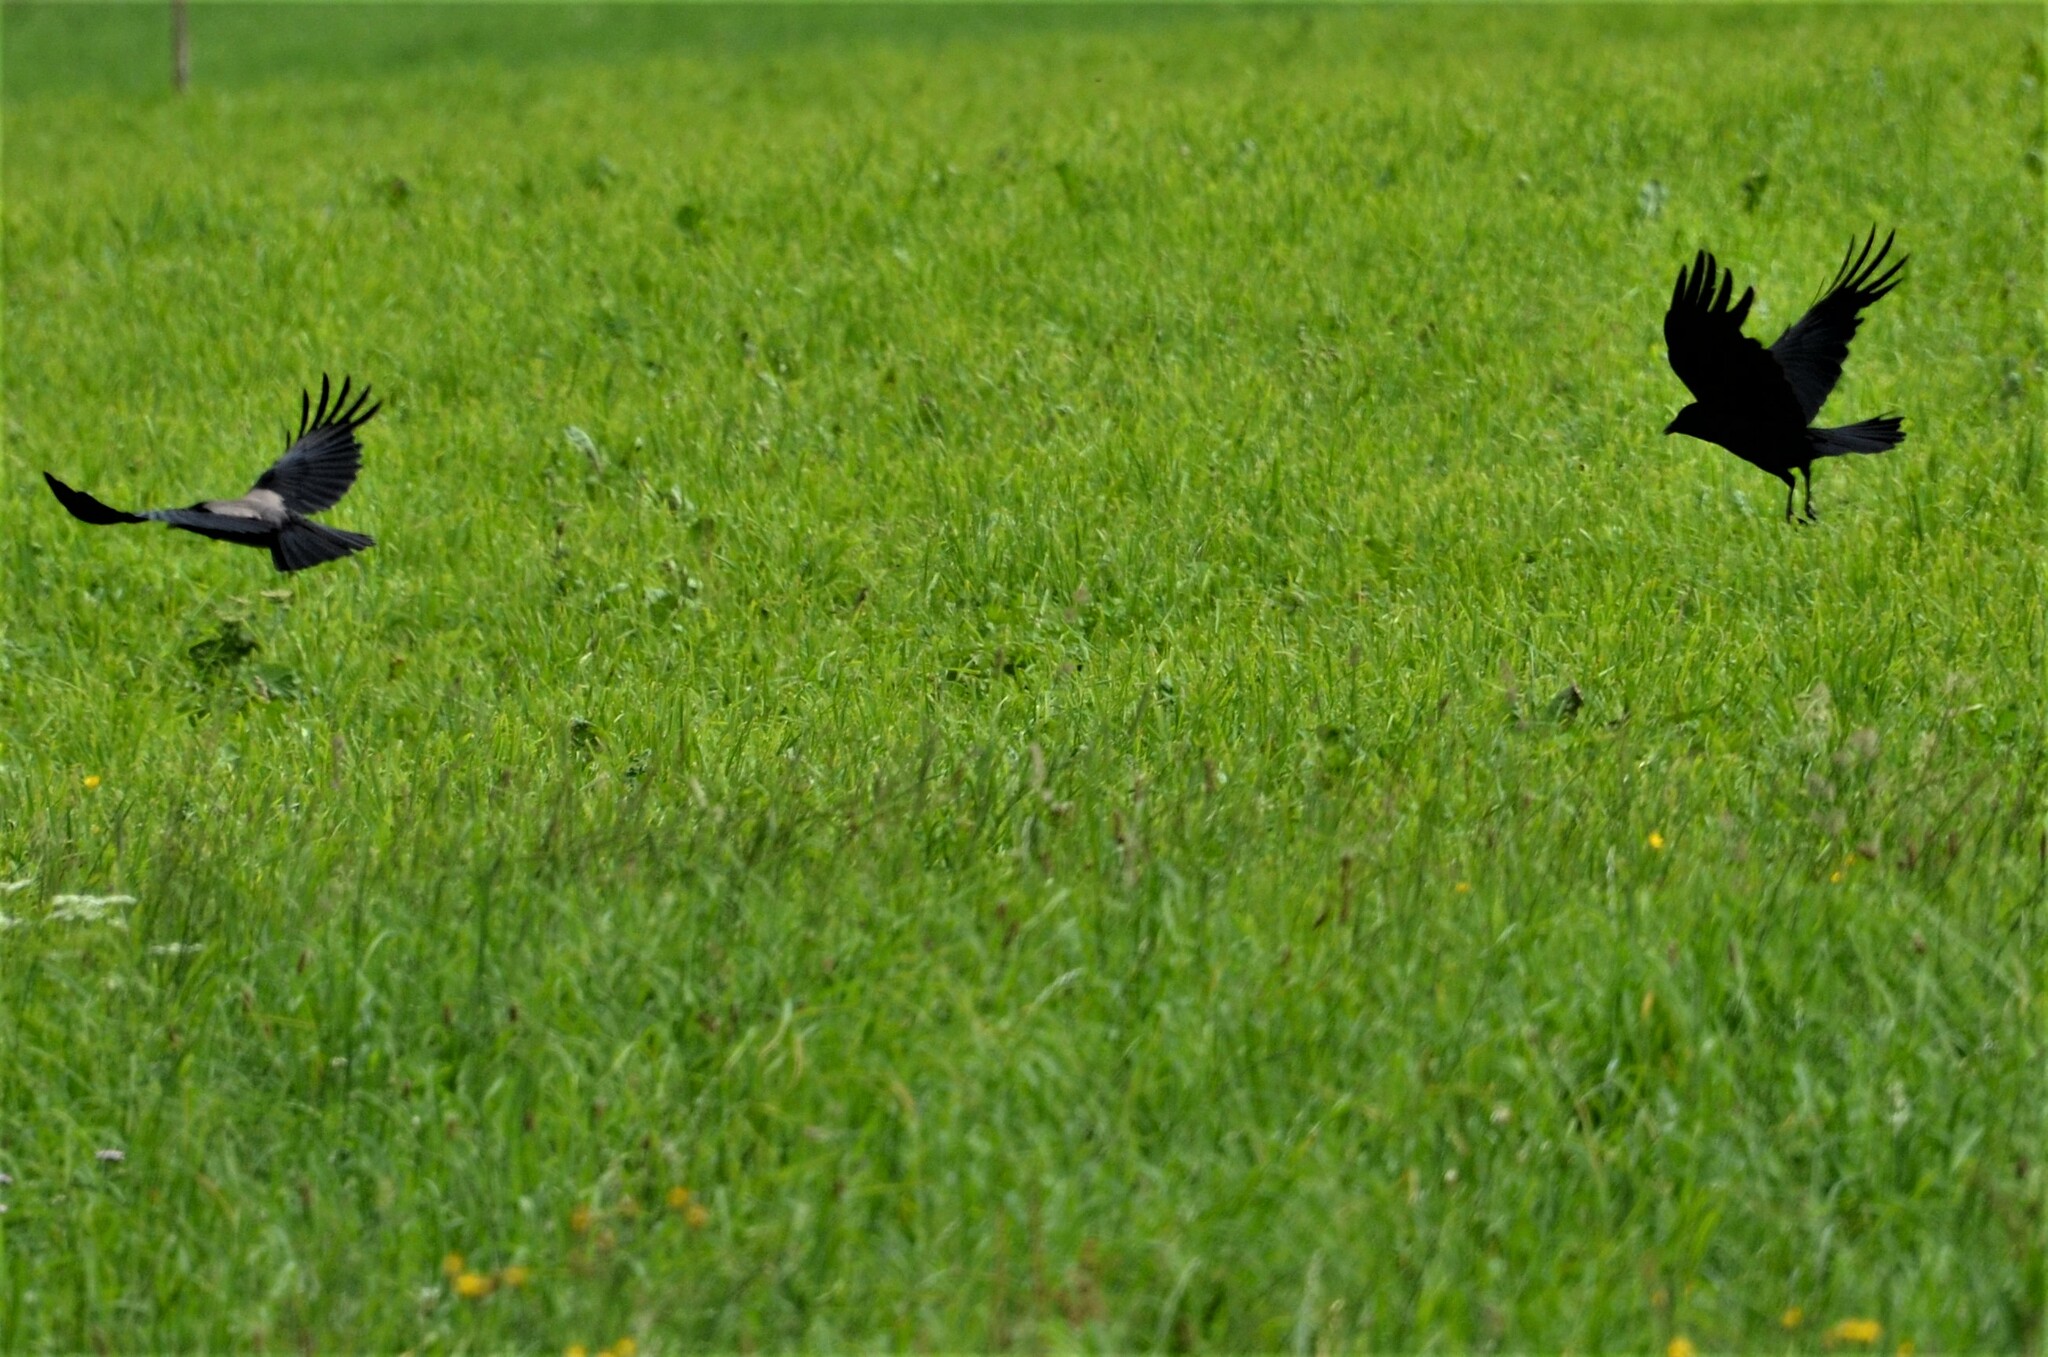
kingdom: Animalia
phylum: Chordata
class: Aves
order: Passeriformes
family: Corvidae
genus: Corvus
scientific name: Corvus cornix
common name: Hooded crow
